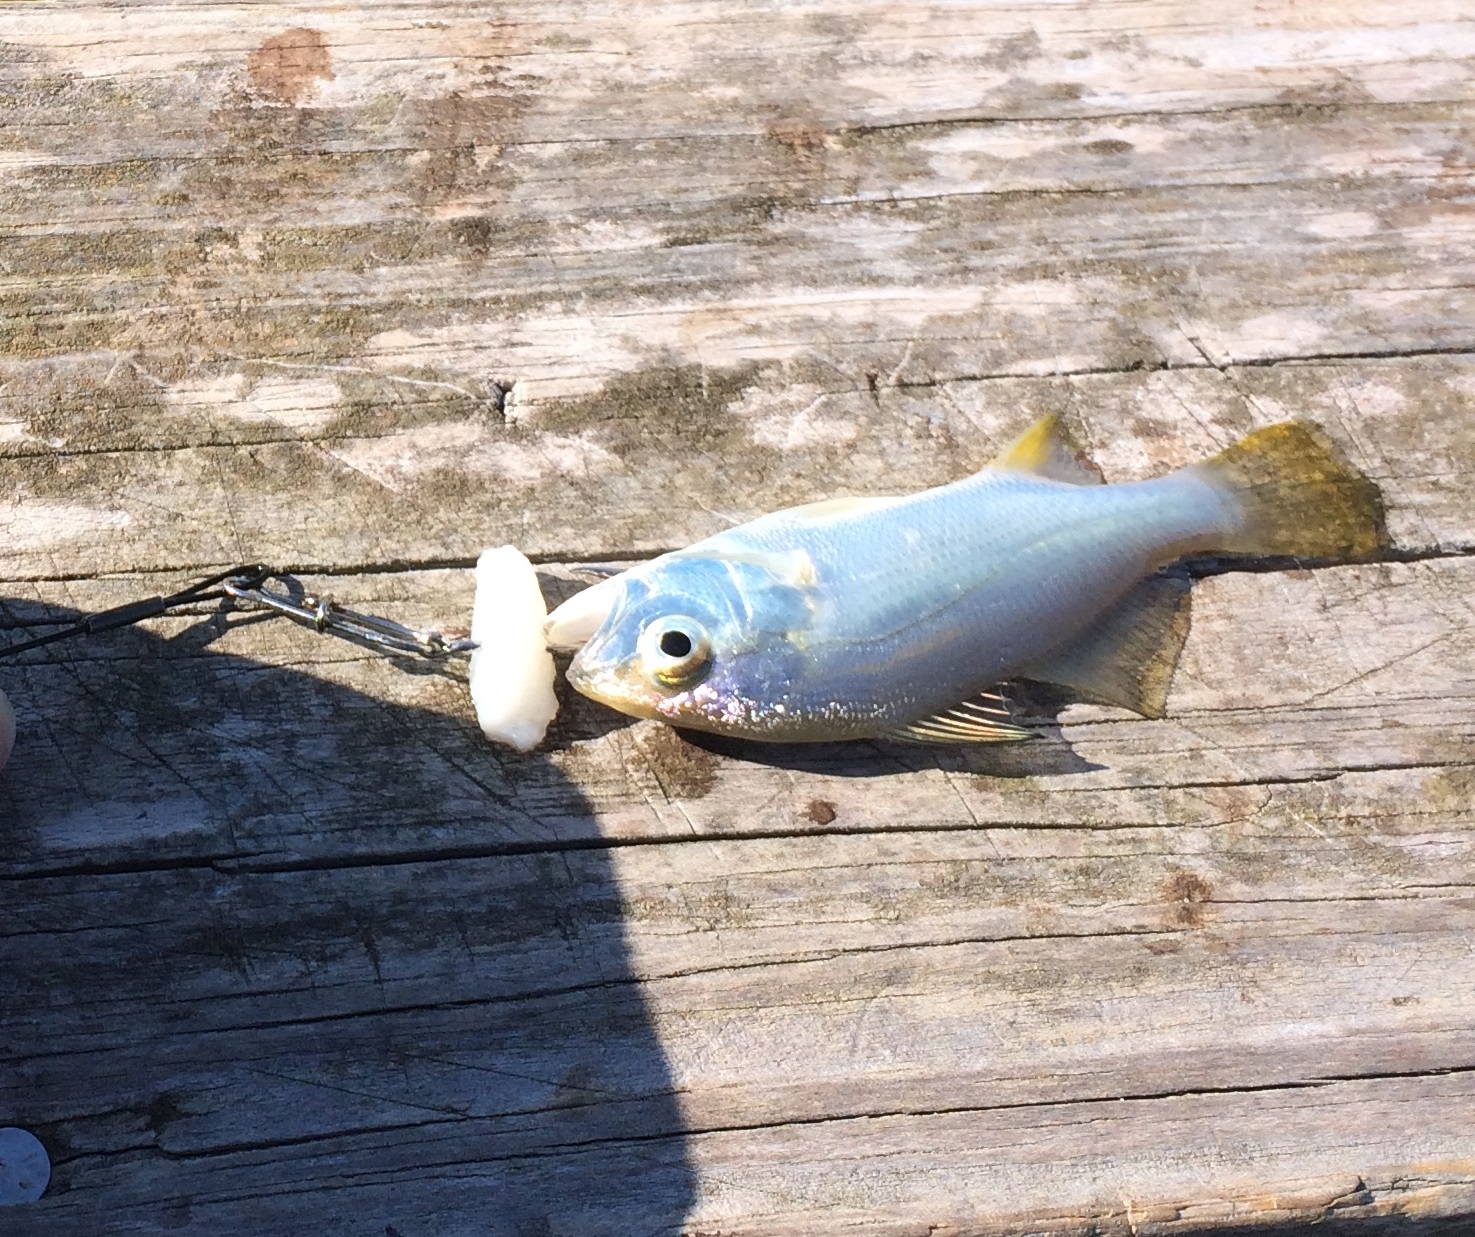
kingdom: Animalia
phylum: Chordata
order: Perciformes
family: Sciaenidae
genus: Bairdiella
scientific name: Bairdiella chrysoura
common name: Silver perch
